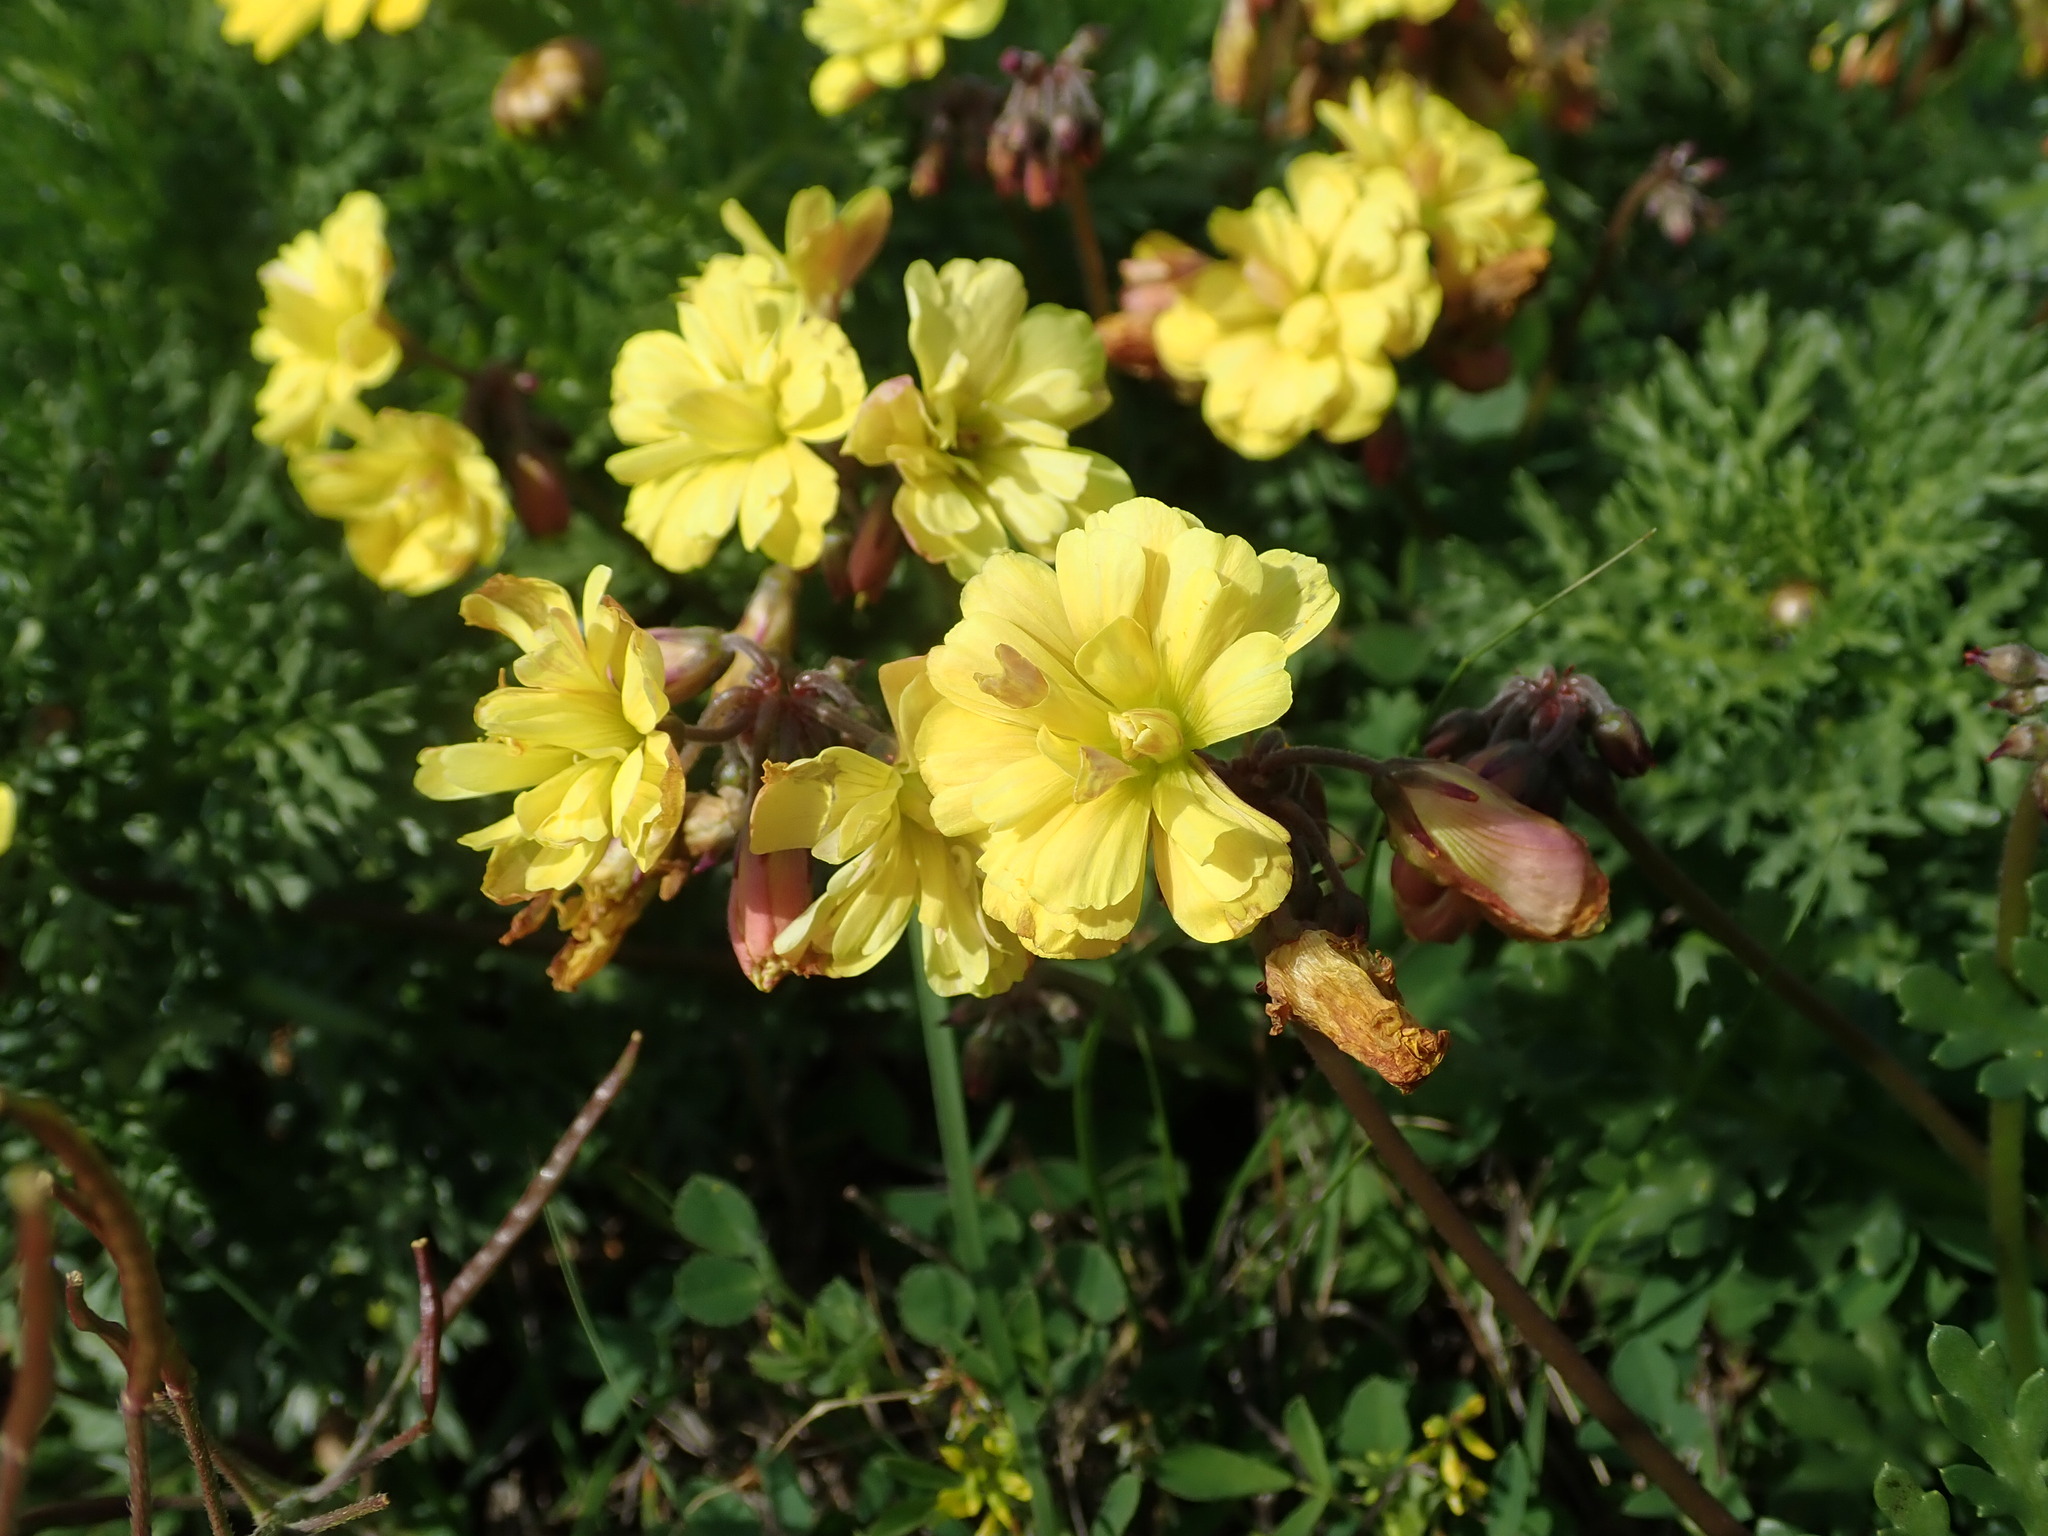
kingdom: Plantae
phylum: Tracheophyta
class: Magnoliopsida
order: Oxalidales
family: Oxalidaceae
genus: Oxalis
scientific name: Oxalis pes-caprae
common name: Bermuda-buttercup
